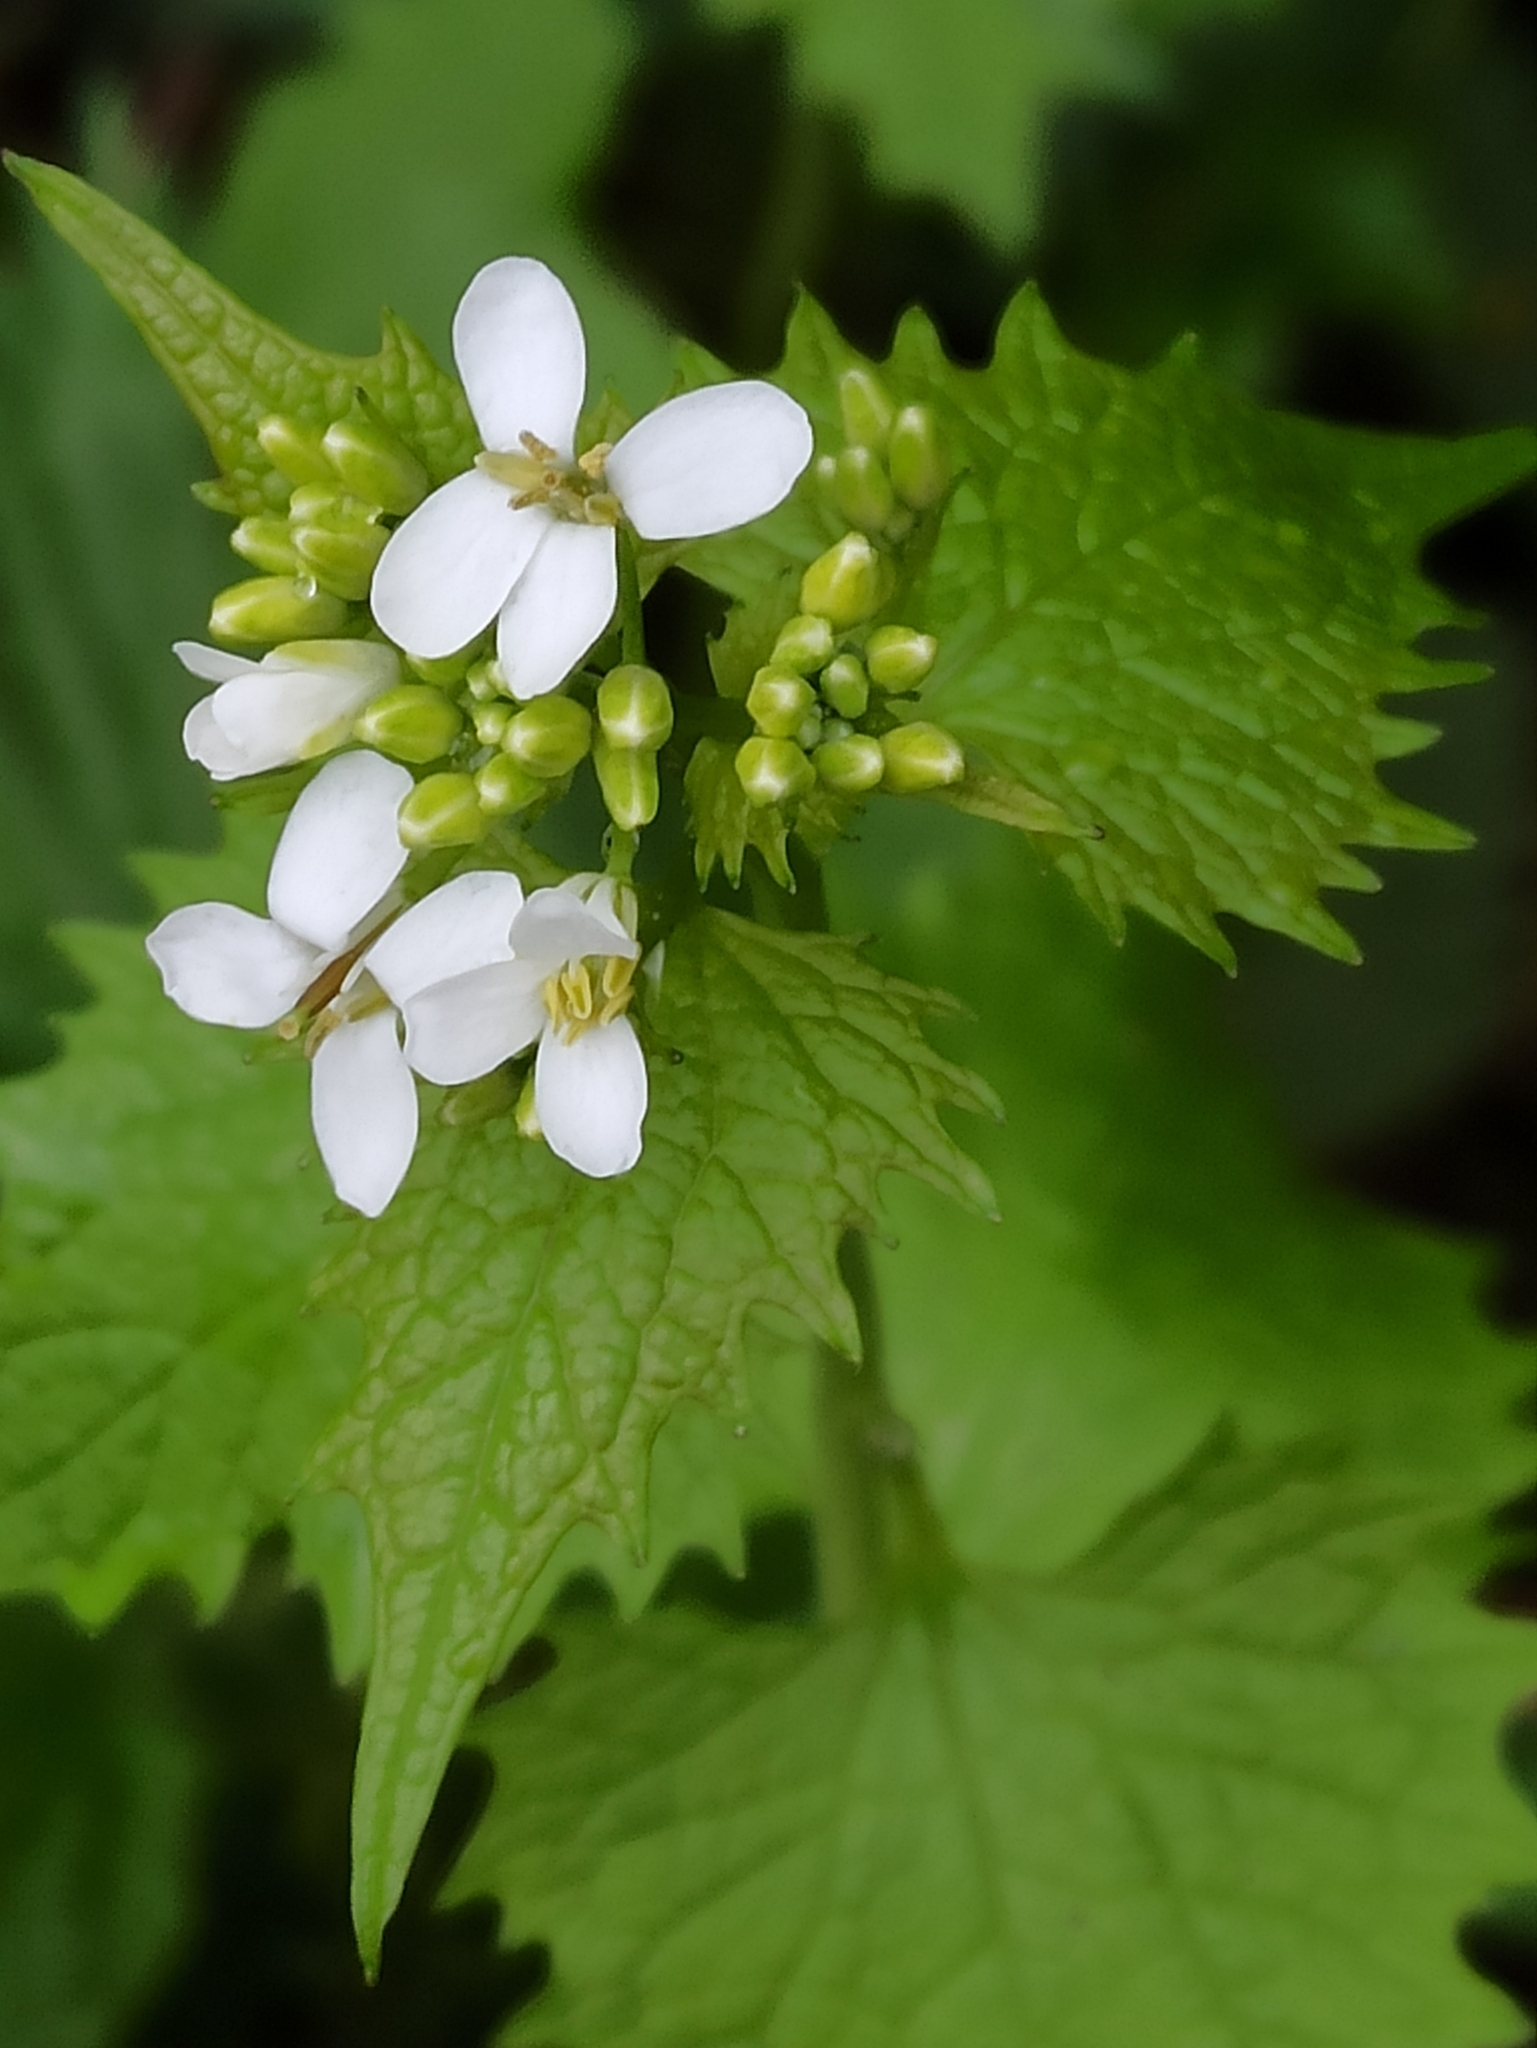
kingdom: Plantae
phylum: Tracheophyta
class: Magnoliopsida
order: Brassicales
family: Brassicaceae
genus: Alliaria
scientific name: Alliaria petiolata
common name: Garlic mustard
